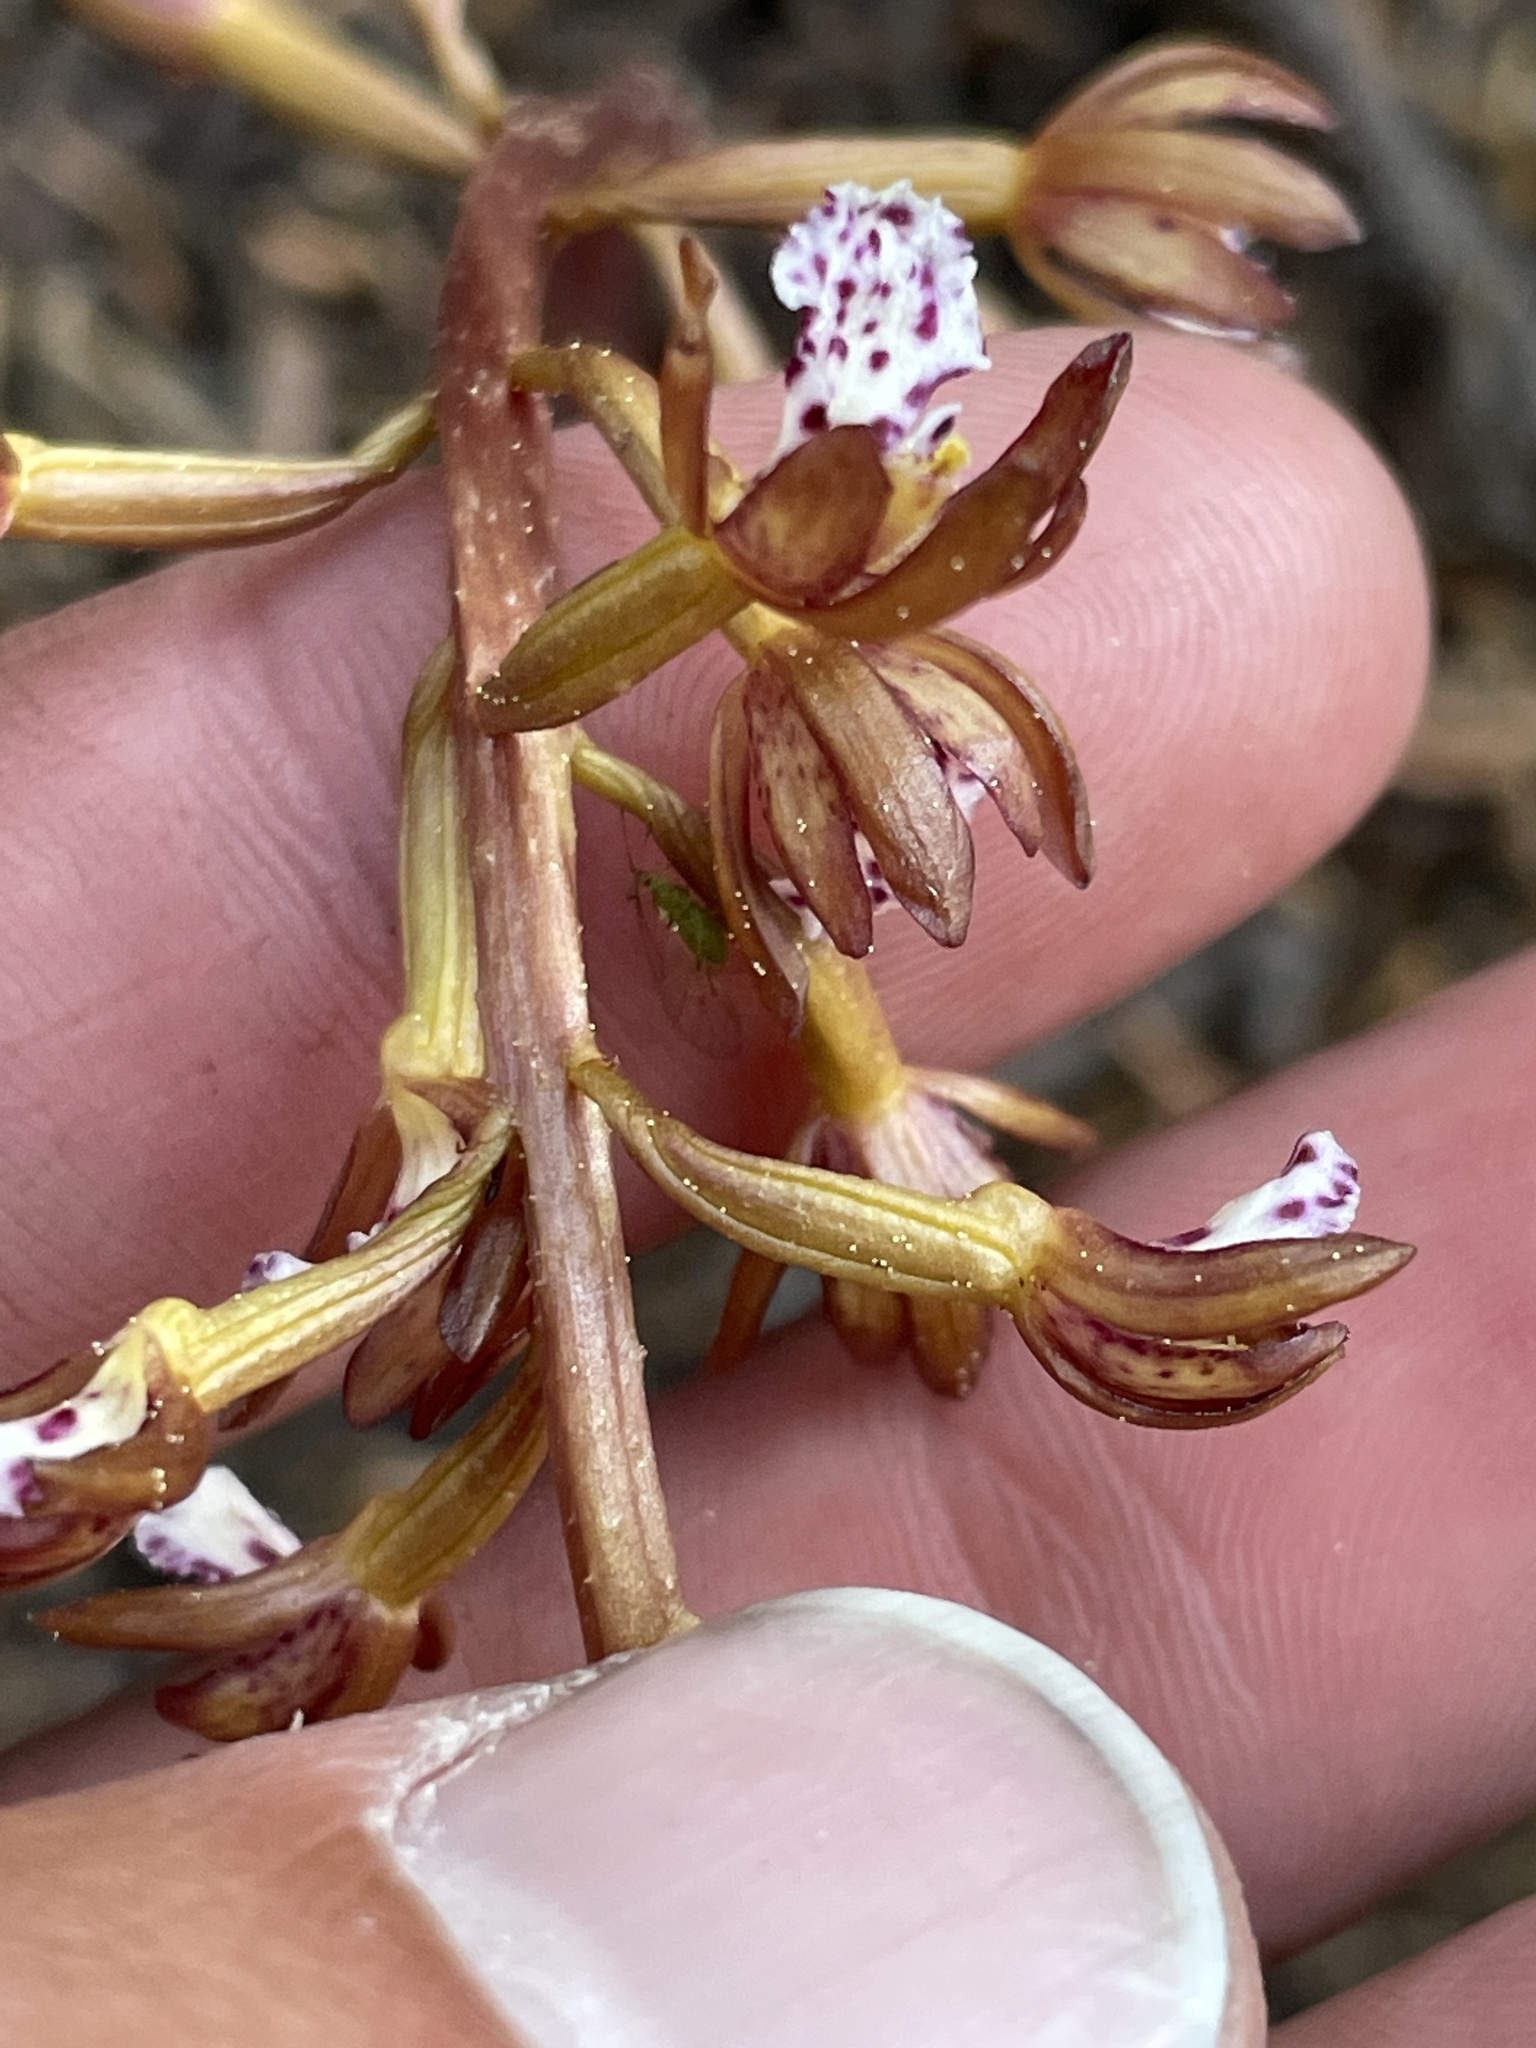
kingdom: Plantae
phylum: Tracheophyta
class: Liliopsida
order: Asparagales
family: Orchidaceae
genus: Corallorhiza
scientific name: Corallorhiza maculata
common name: Spotted coralroot
